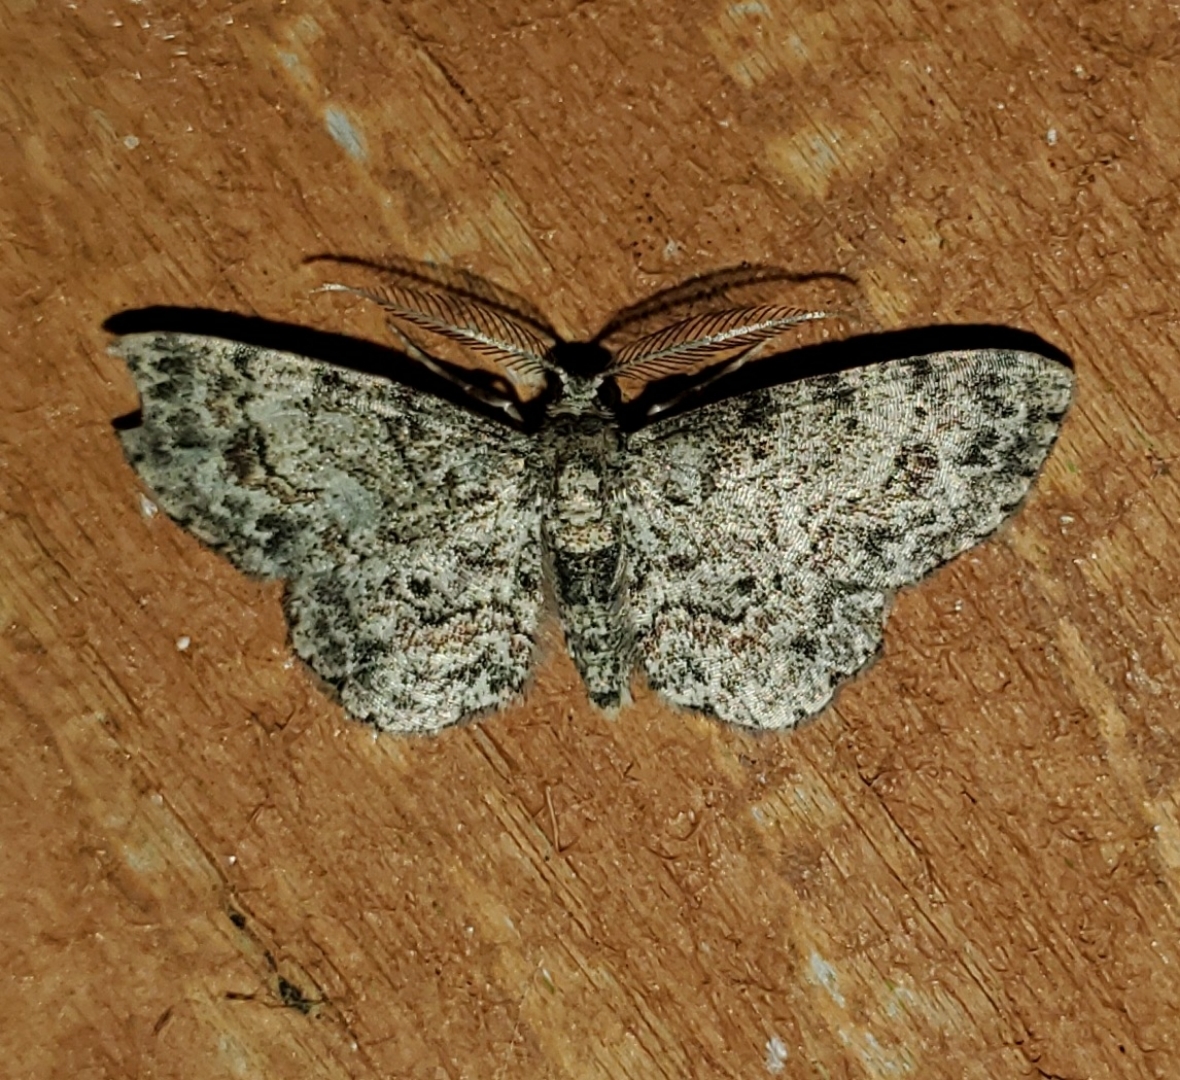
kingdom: Animalia
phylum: Arthropoda
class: Insecta
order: Lepidoptera
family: Geometridae
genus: Glenoides
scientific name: Glenoides texanaria
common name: Texas gray
